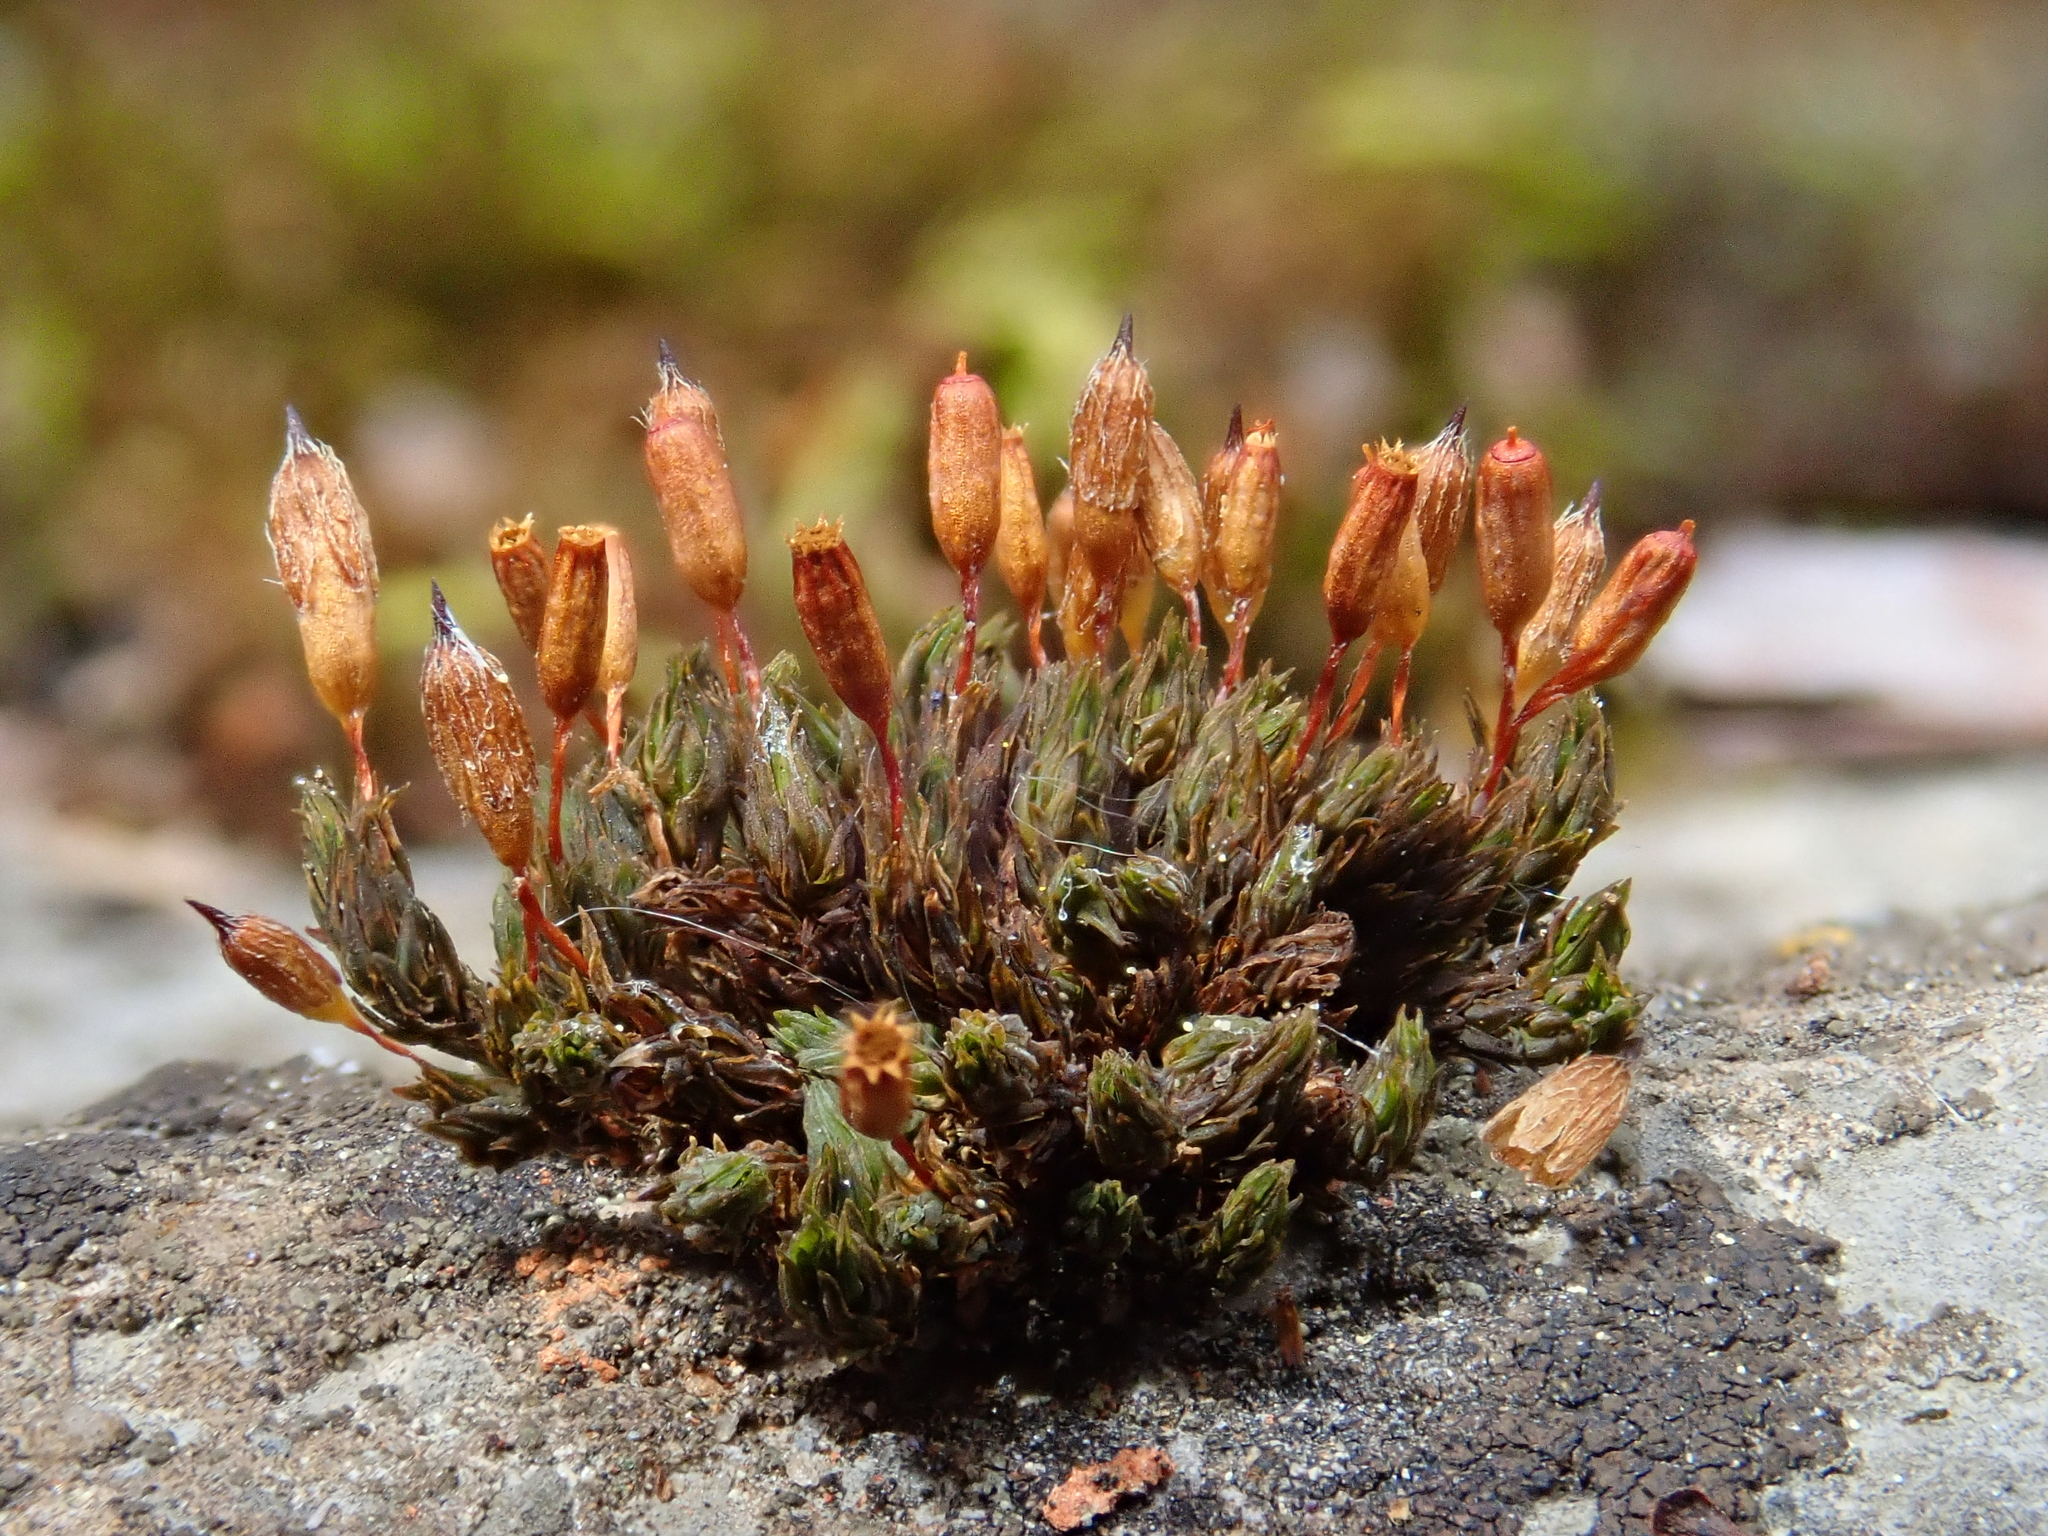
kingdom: Plantae
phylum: Bryophyta
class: Bryopsida
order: Orthotrichales
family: Orthotrichaceae
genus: Orthotrichum
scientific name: Orthotrichum anomalum
